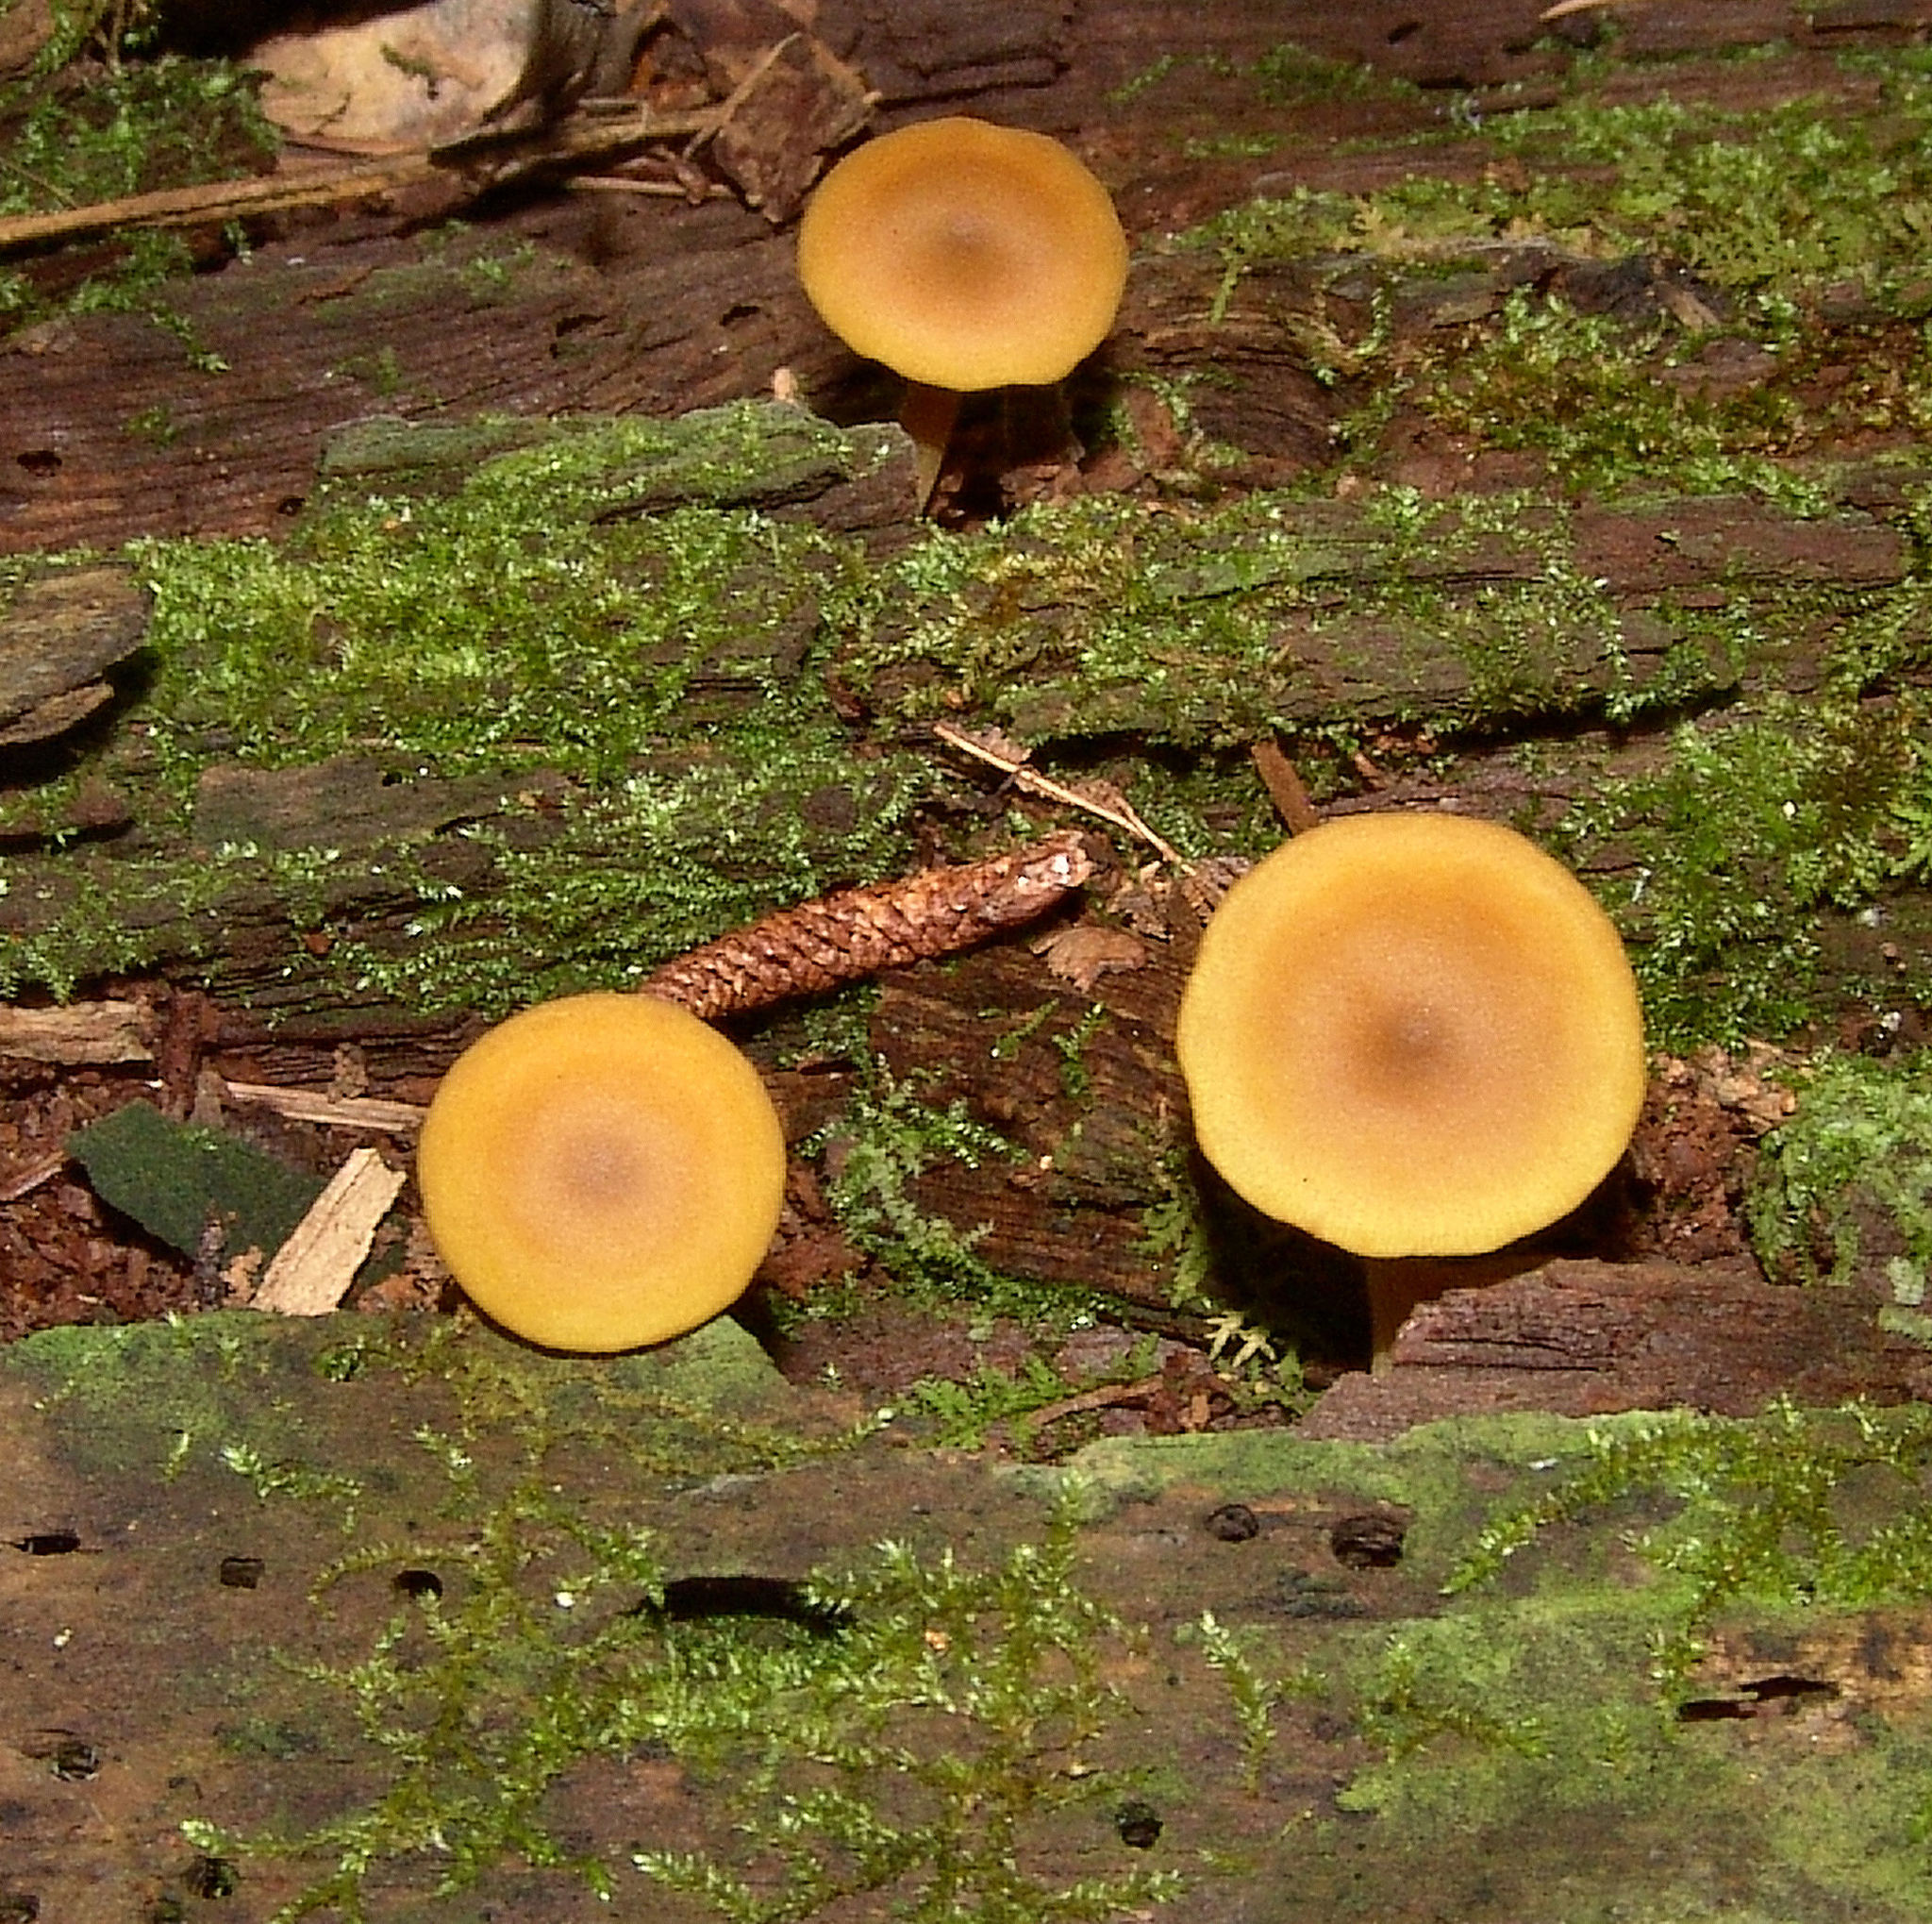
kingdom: Fungi
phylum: Basidiomycota
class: Agaricomycetes
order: Agaricales
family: Callistosporiaceae
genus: Callistosporium
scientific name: Callistosporium luteo-olivaceum
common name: Olive lute
